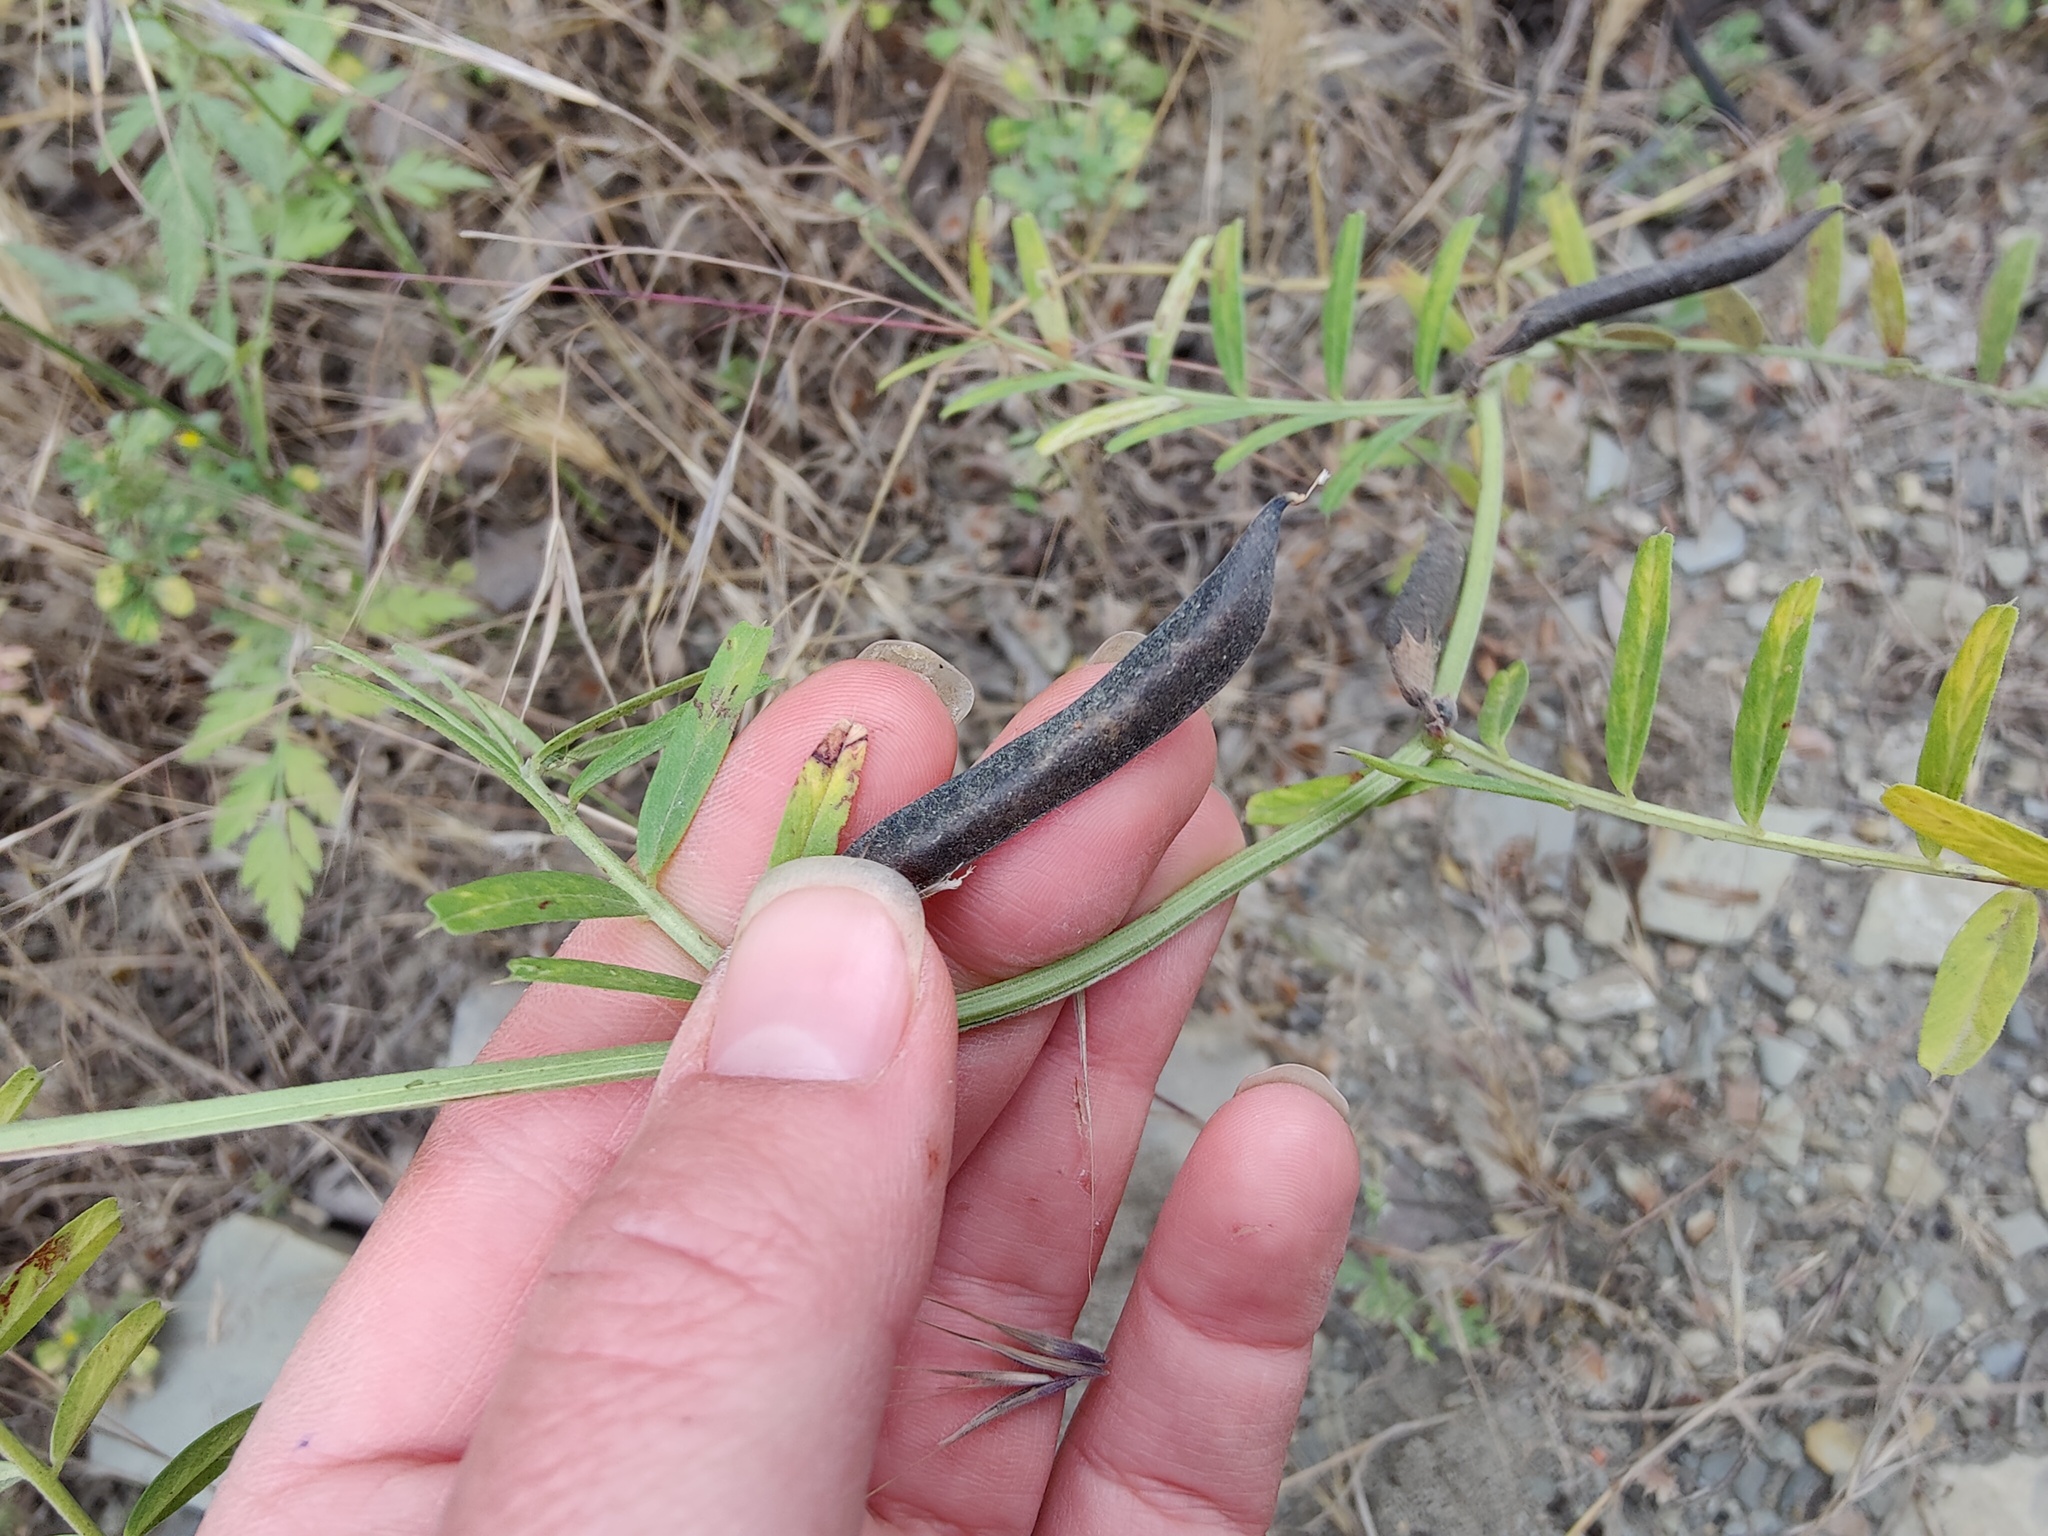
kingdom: Plantae
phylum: Tracheophyta
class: Magnoliopsida
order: Fabales
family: Fabaceae
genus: Vicia
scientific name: Vicia grandiflora
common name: Large yellow vetch
